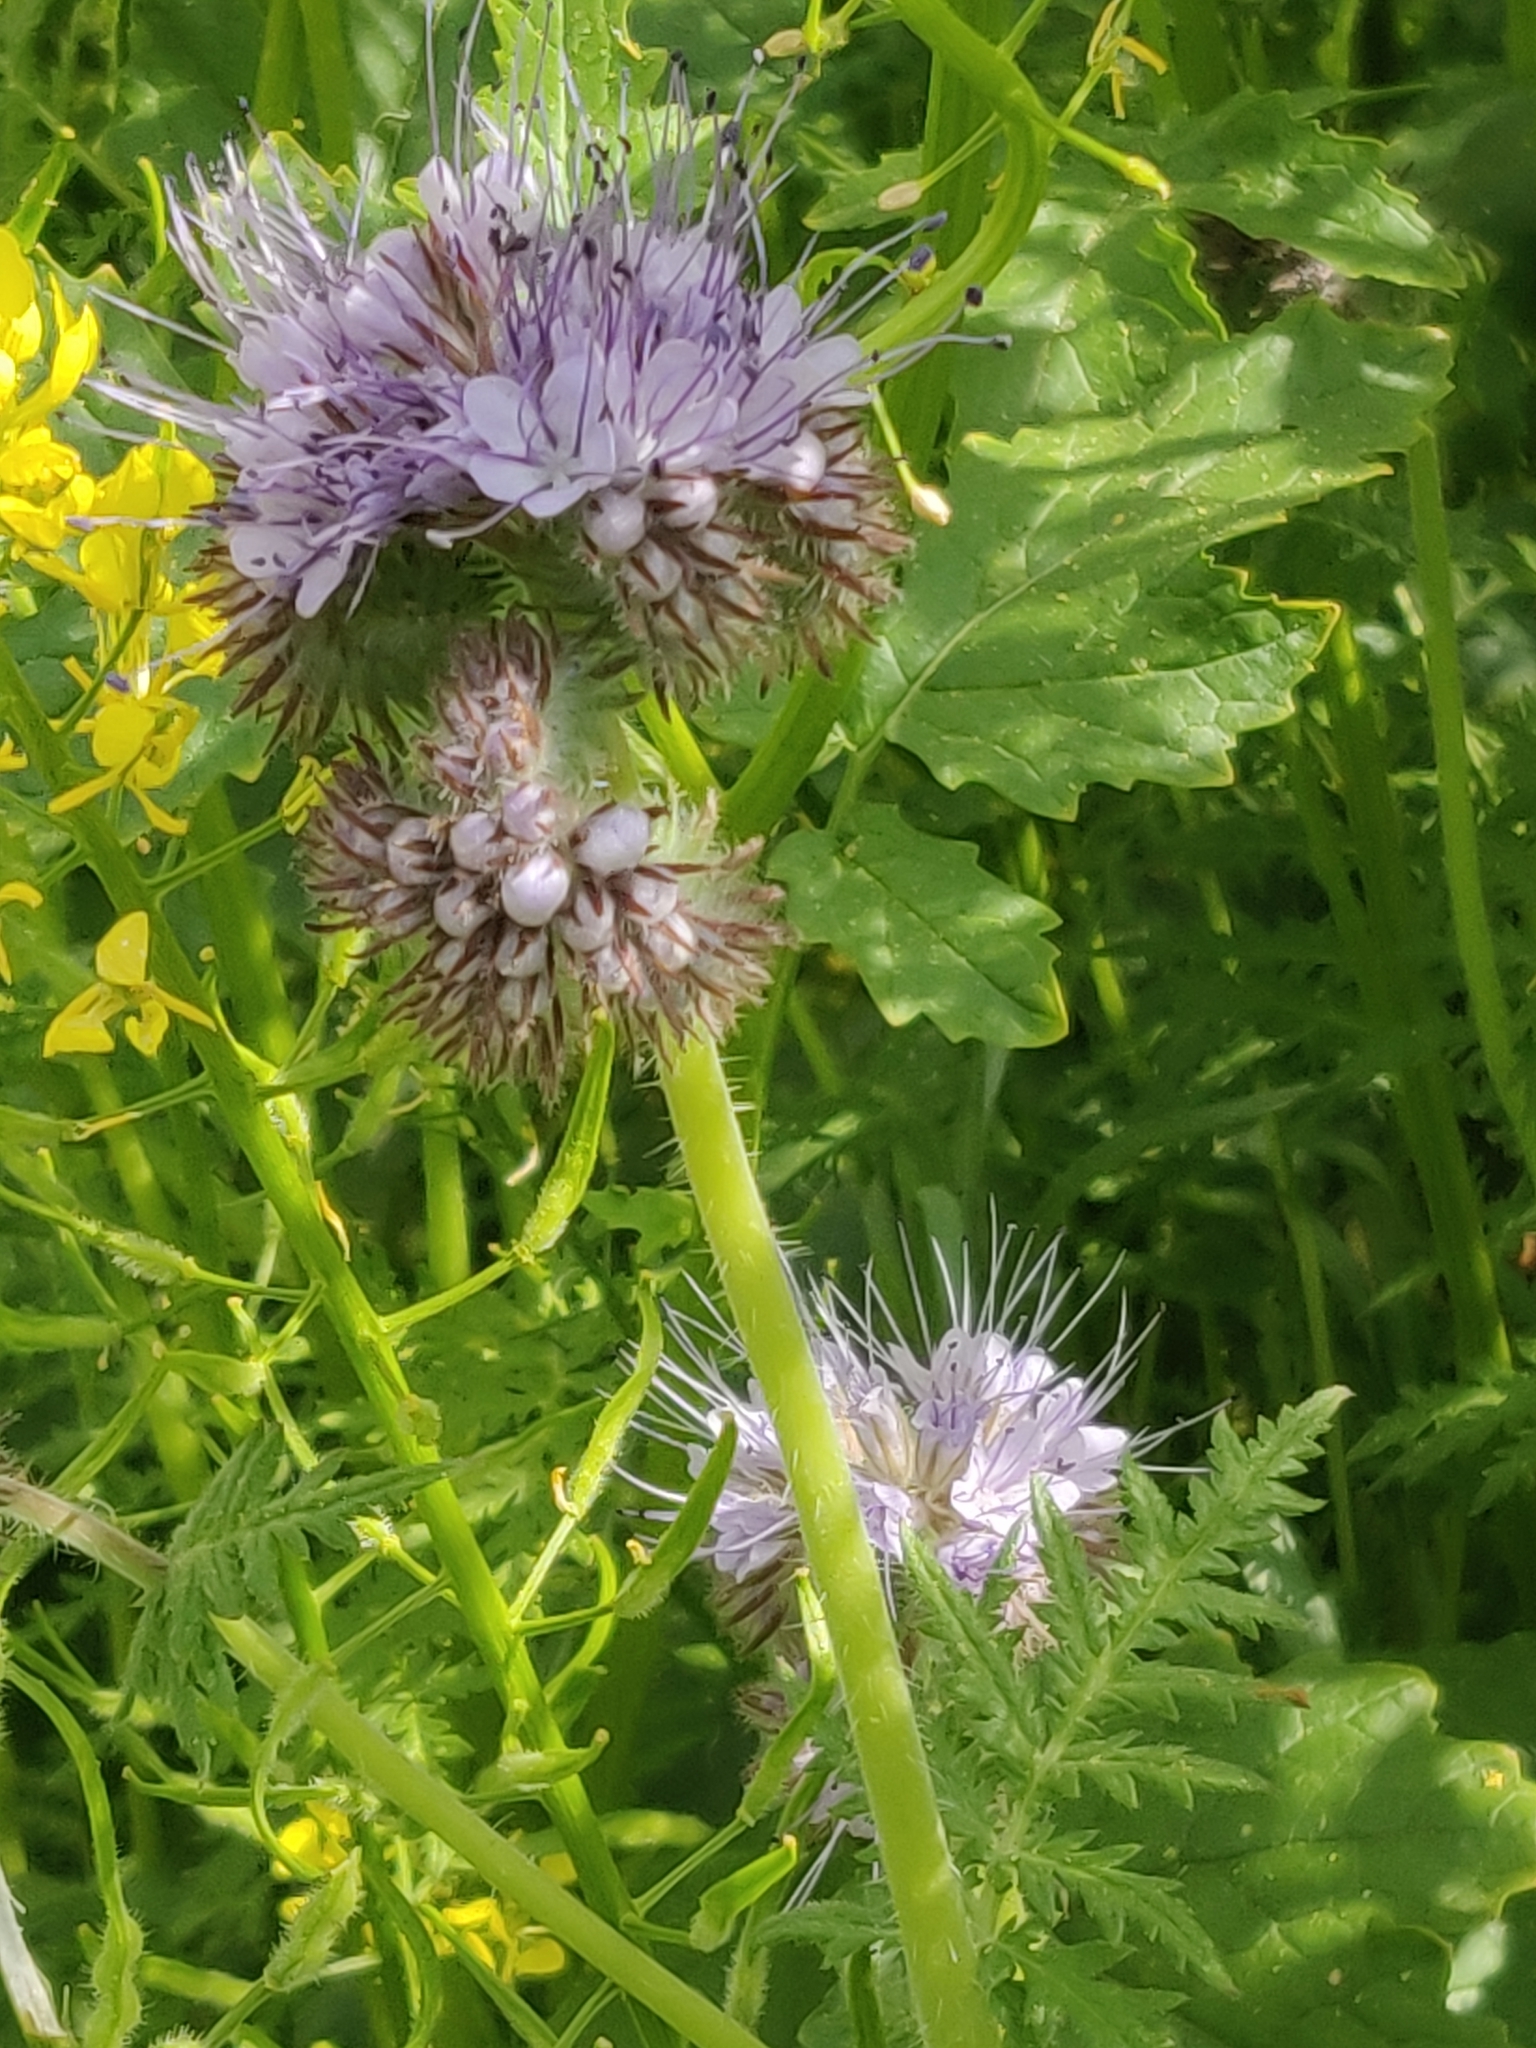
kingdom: Plantae
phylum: Tracheophyta
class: Magnoliopsida
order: Boraginales
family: Hydrophyllaceae
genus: Phacelia
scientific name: Phacelia tanacetifolia
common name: Phacelia
